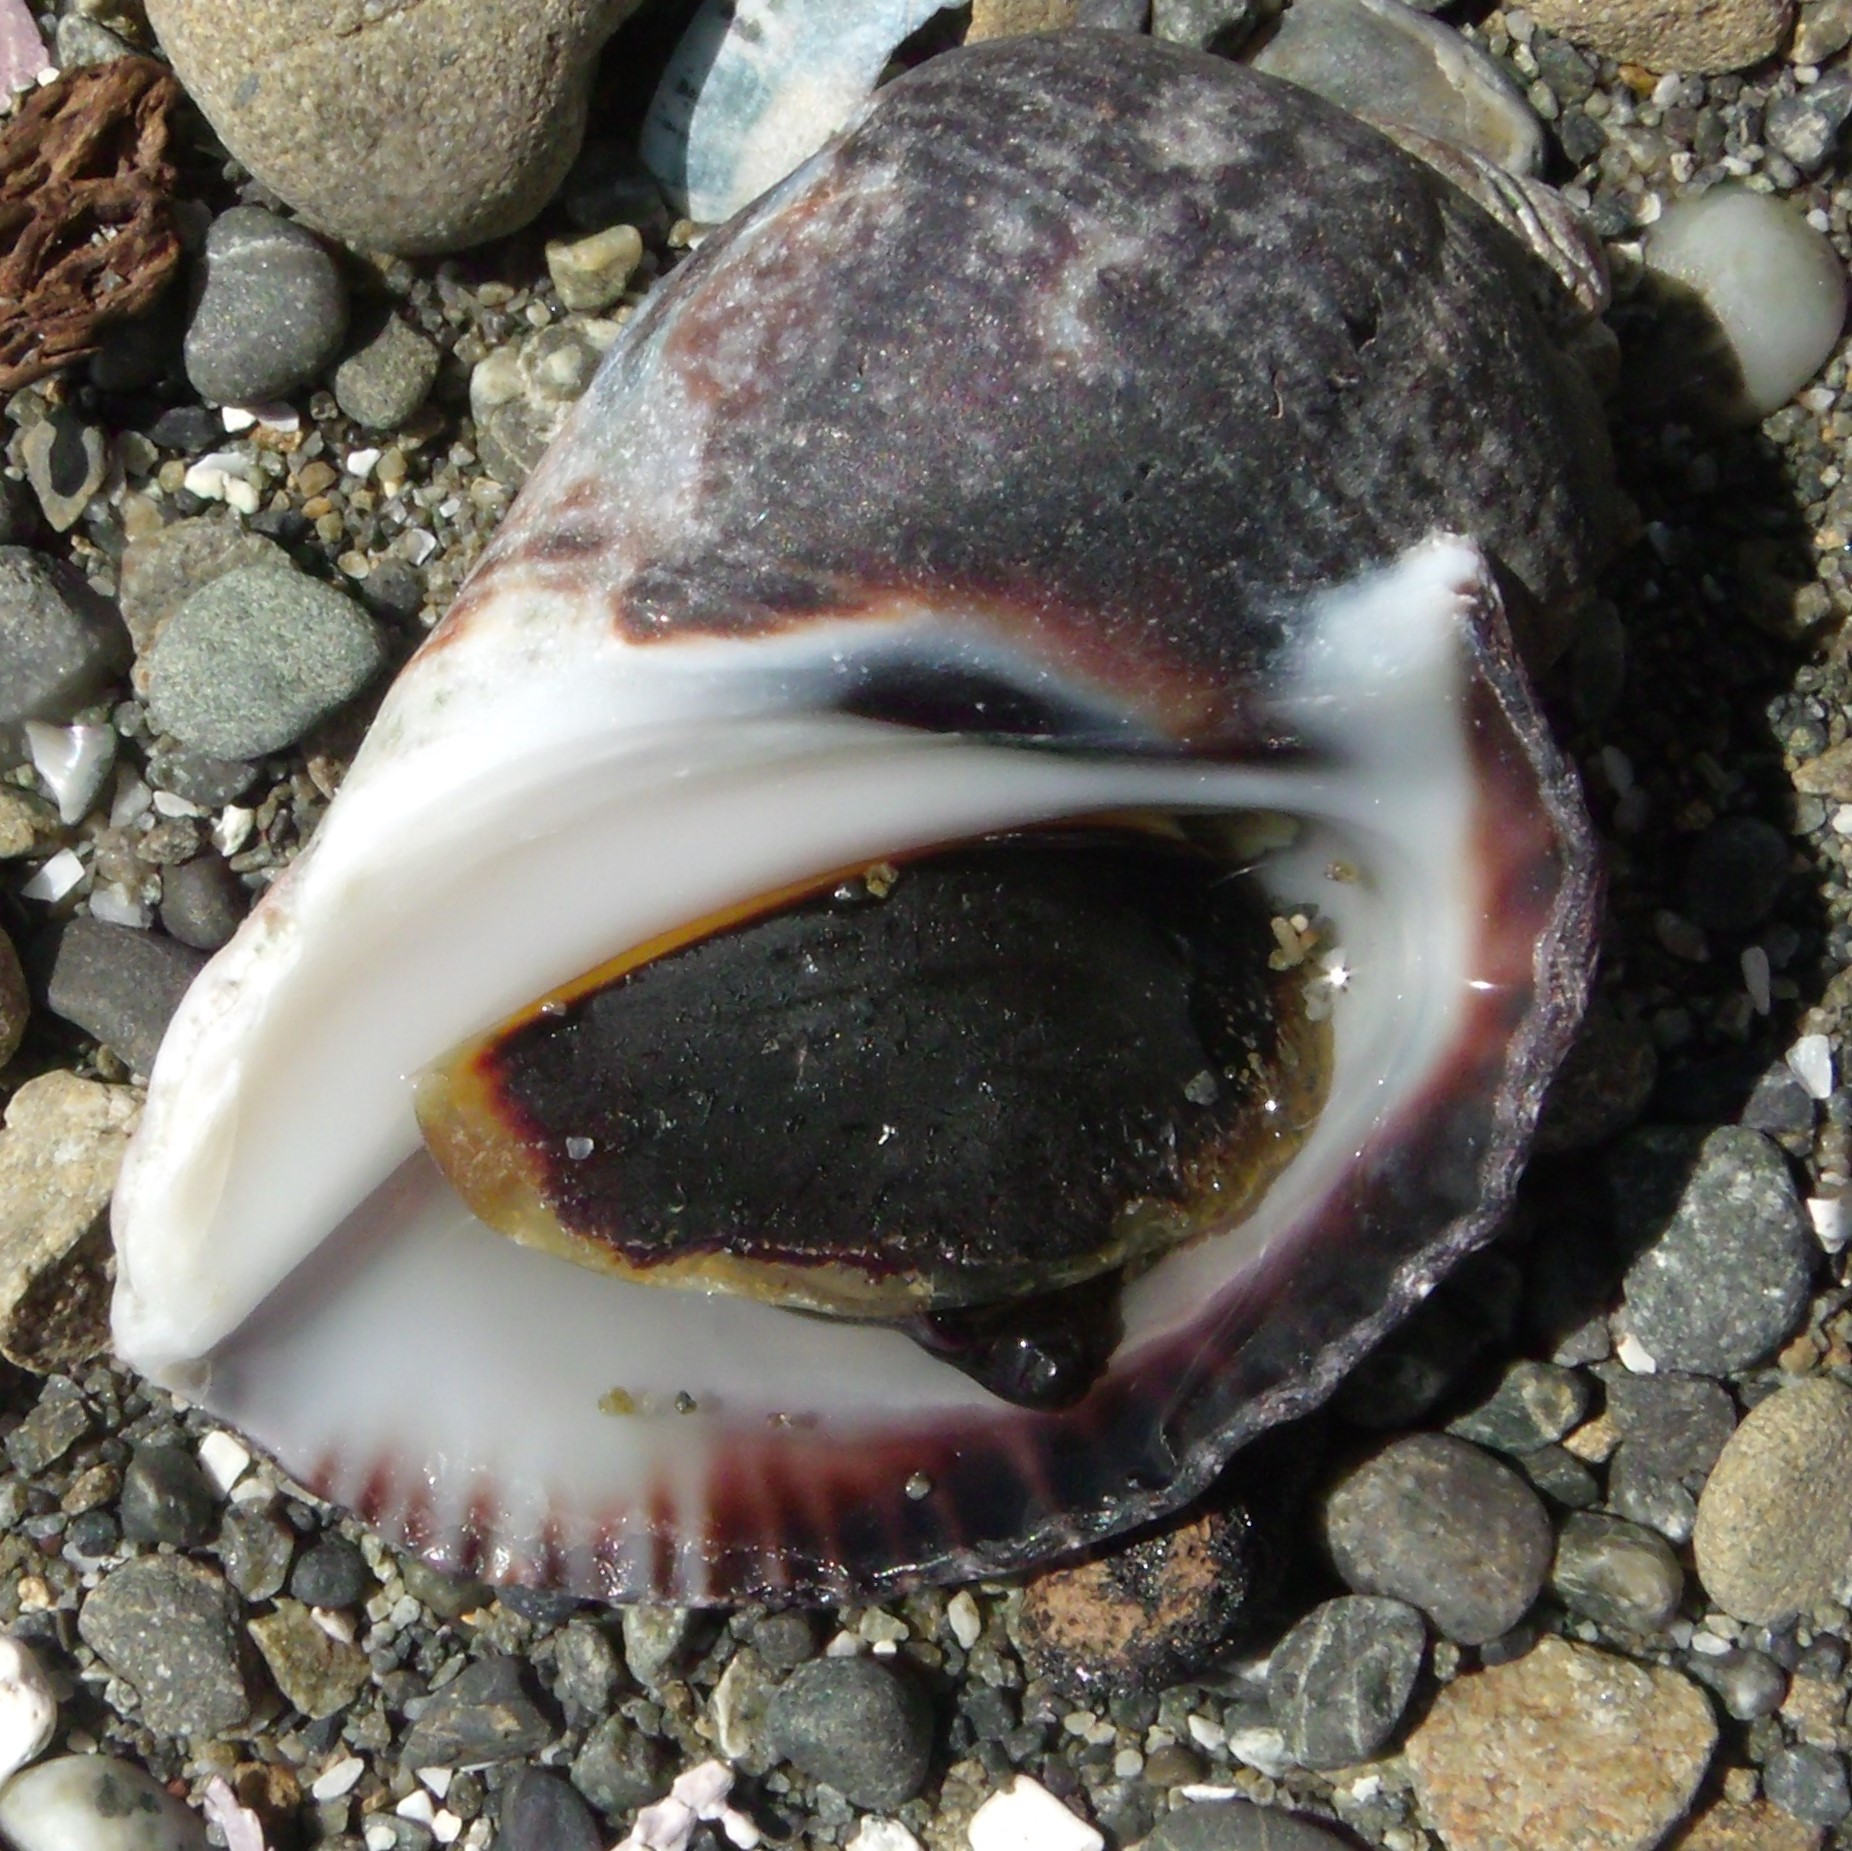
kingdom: Animalia
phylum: Mollusca
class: Gastropoda
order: Neogastropoda
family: Muricidae
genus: Haustrum
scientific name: Haustrum haustorium
